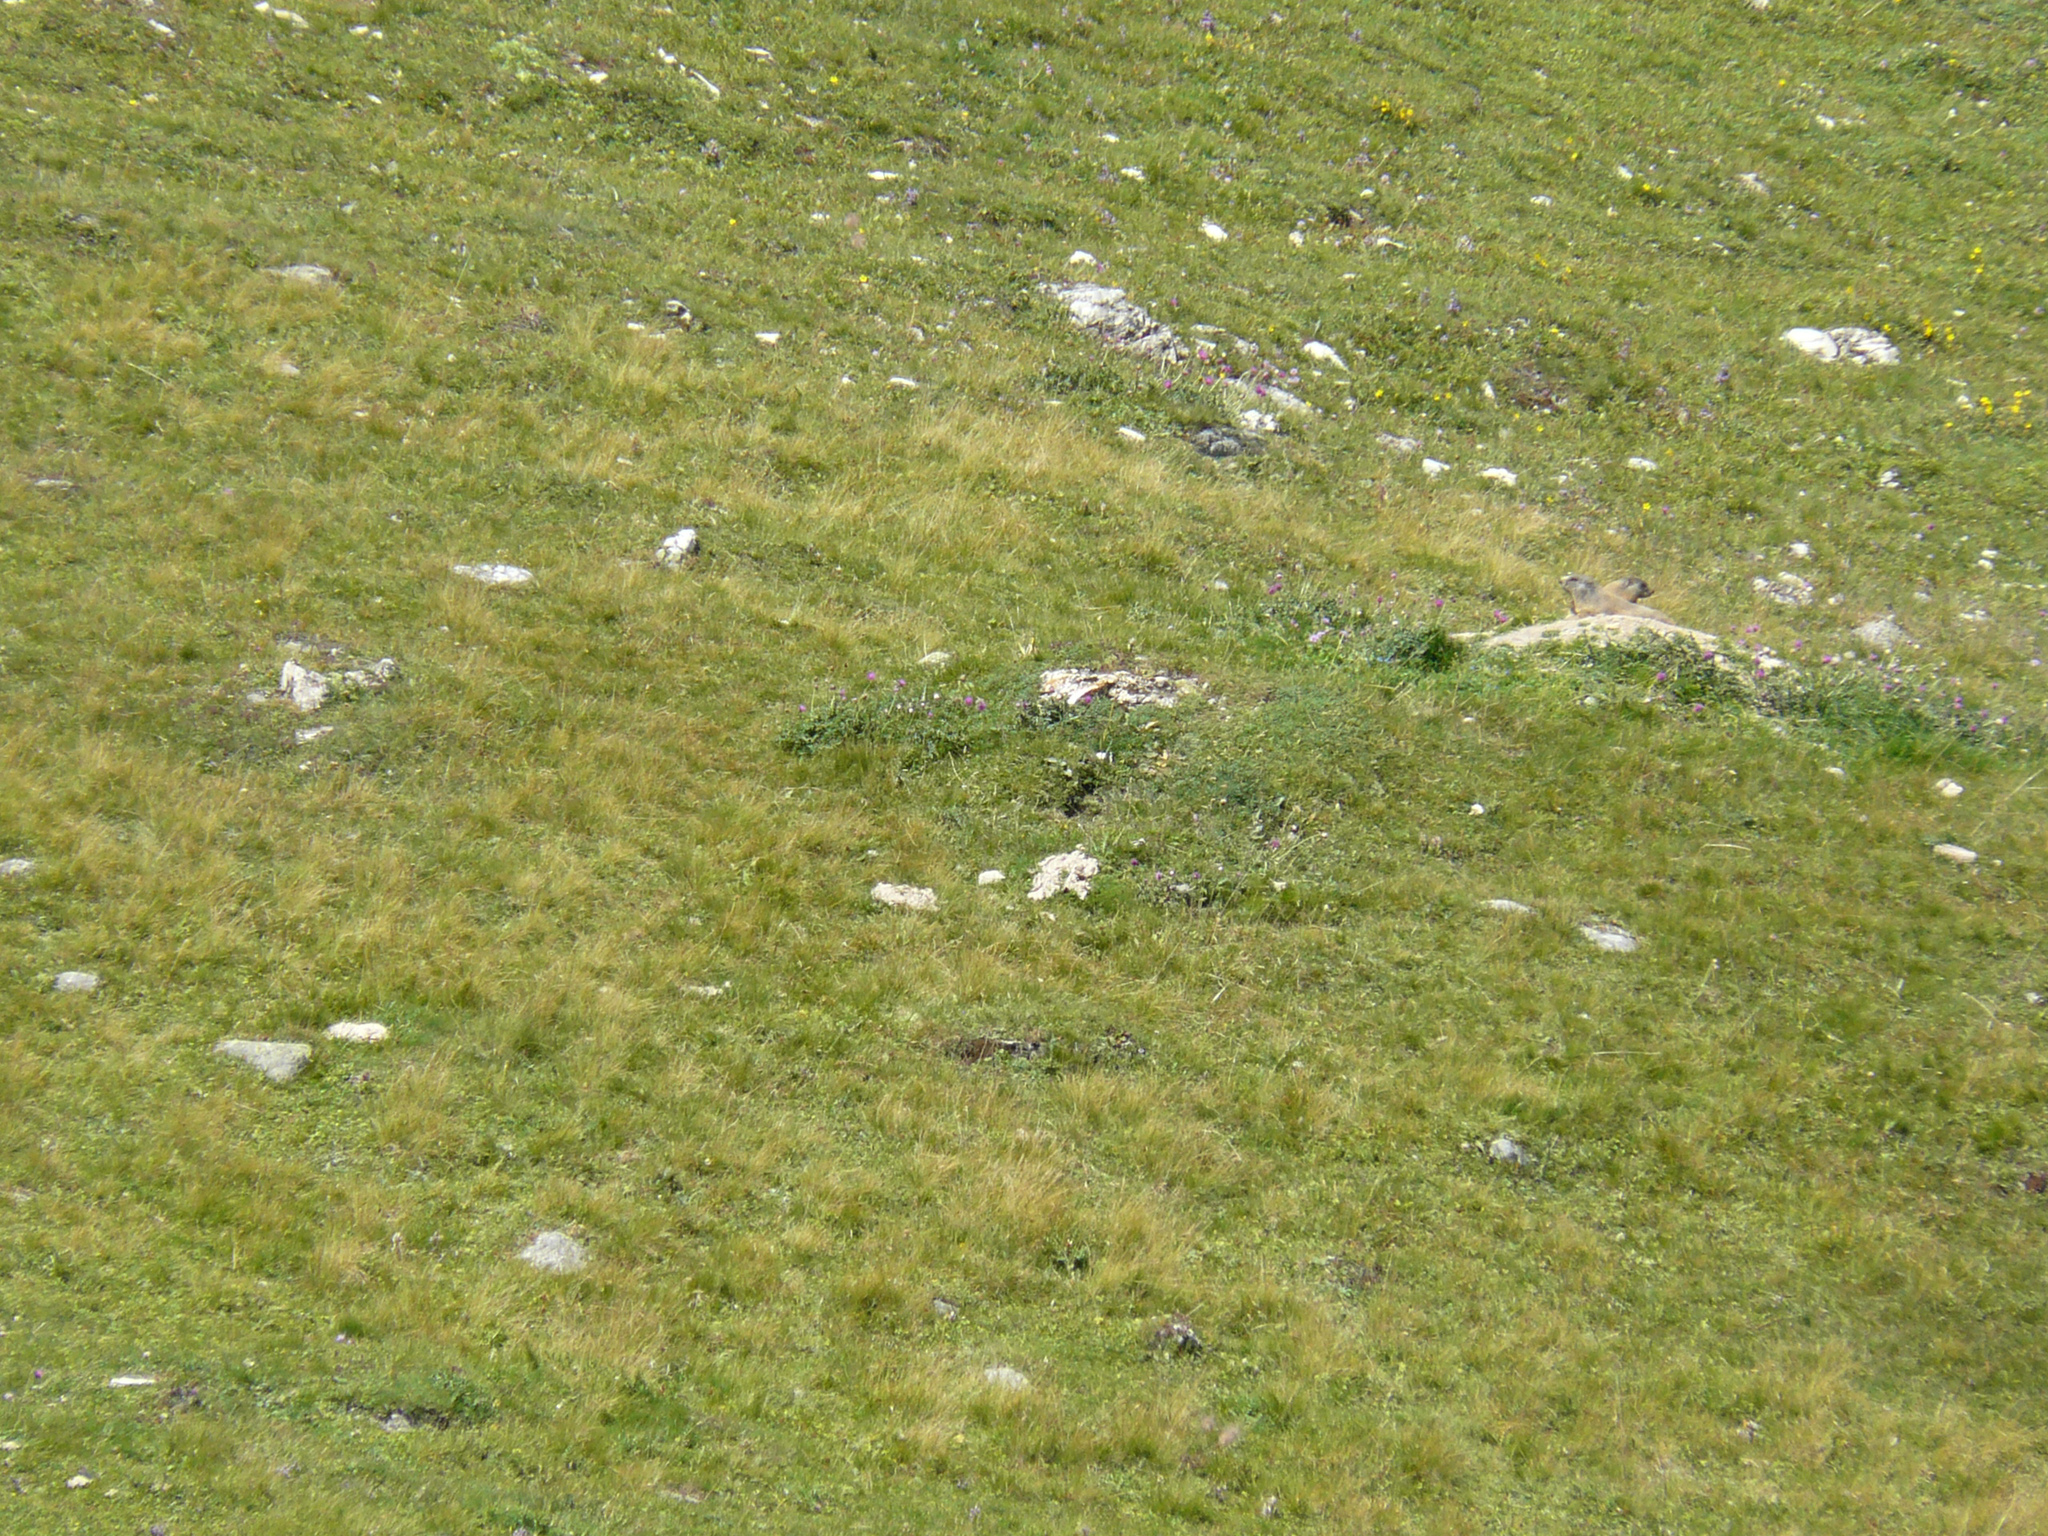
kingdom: Animalia
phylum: Chordata
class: Mammalia
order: Rodentia
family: Sciuridae
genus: Marmota
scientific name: Marmota marmota
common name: Alpine marmot
